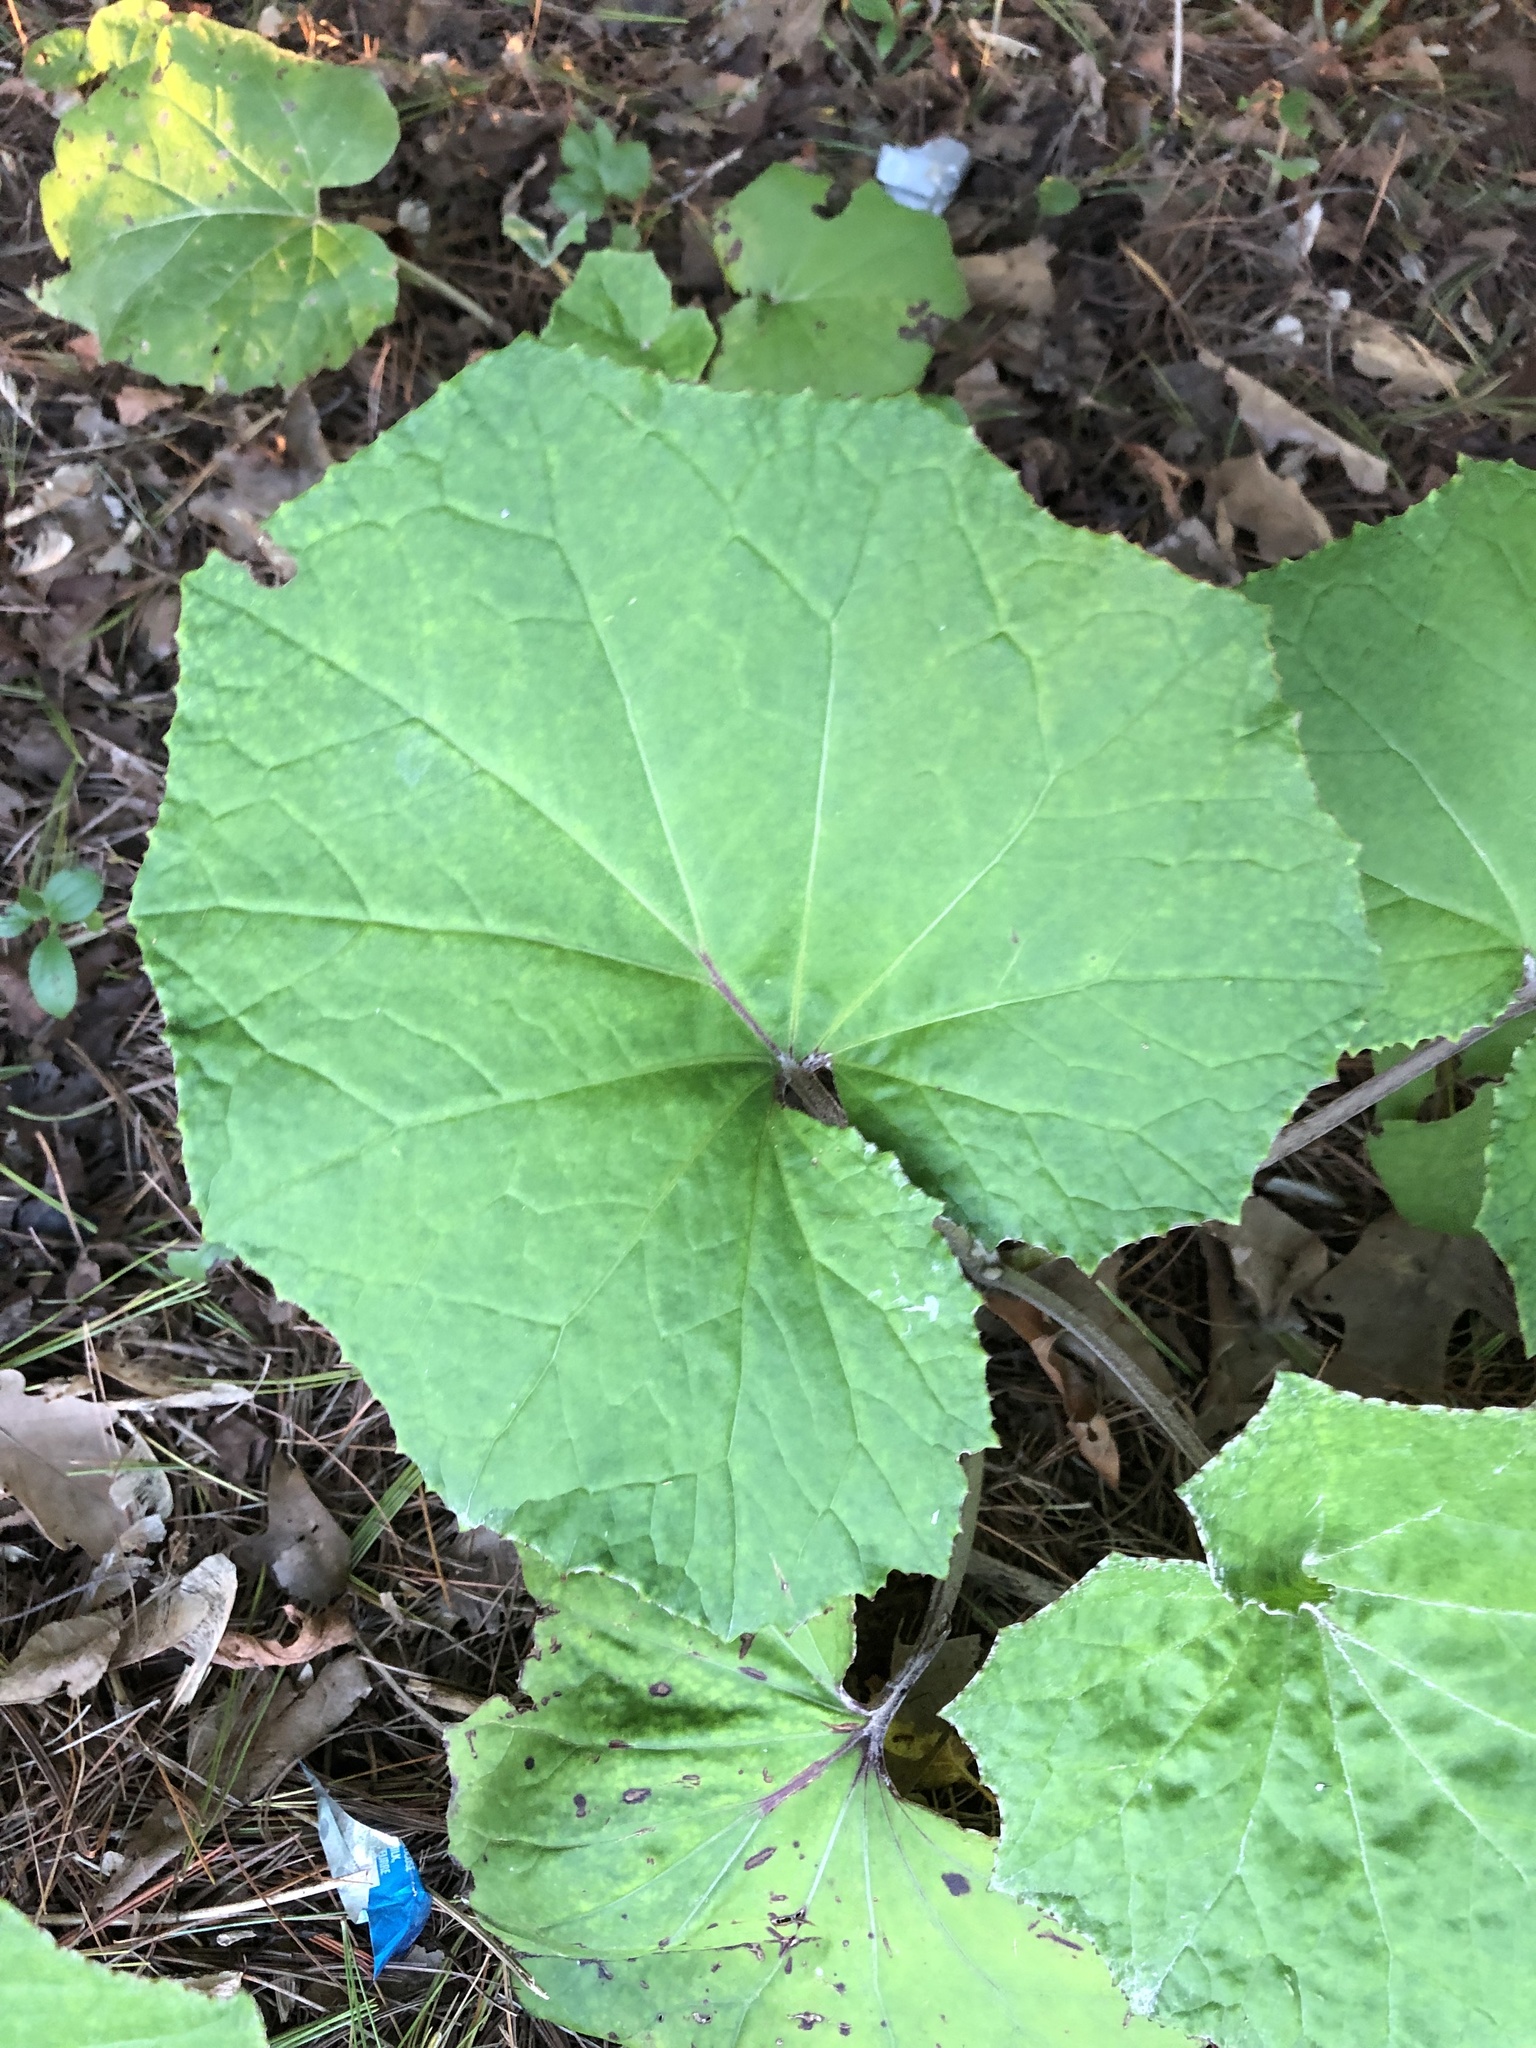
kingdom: Plantae
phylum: Tracheophyta
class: Magnoliopsida
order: Asterales
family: Asteraceae
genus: Tussilago
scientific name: Tussilago farfara
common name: Coltsfoot
